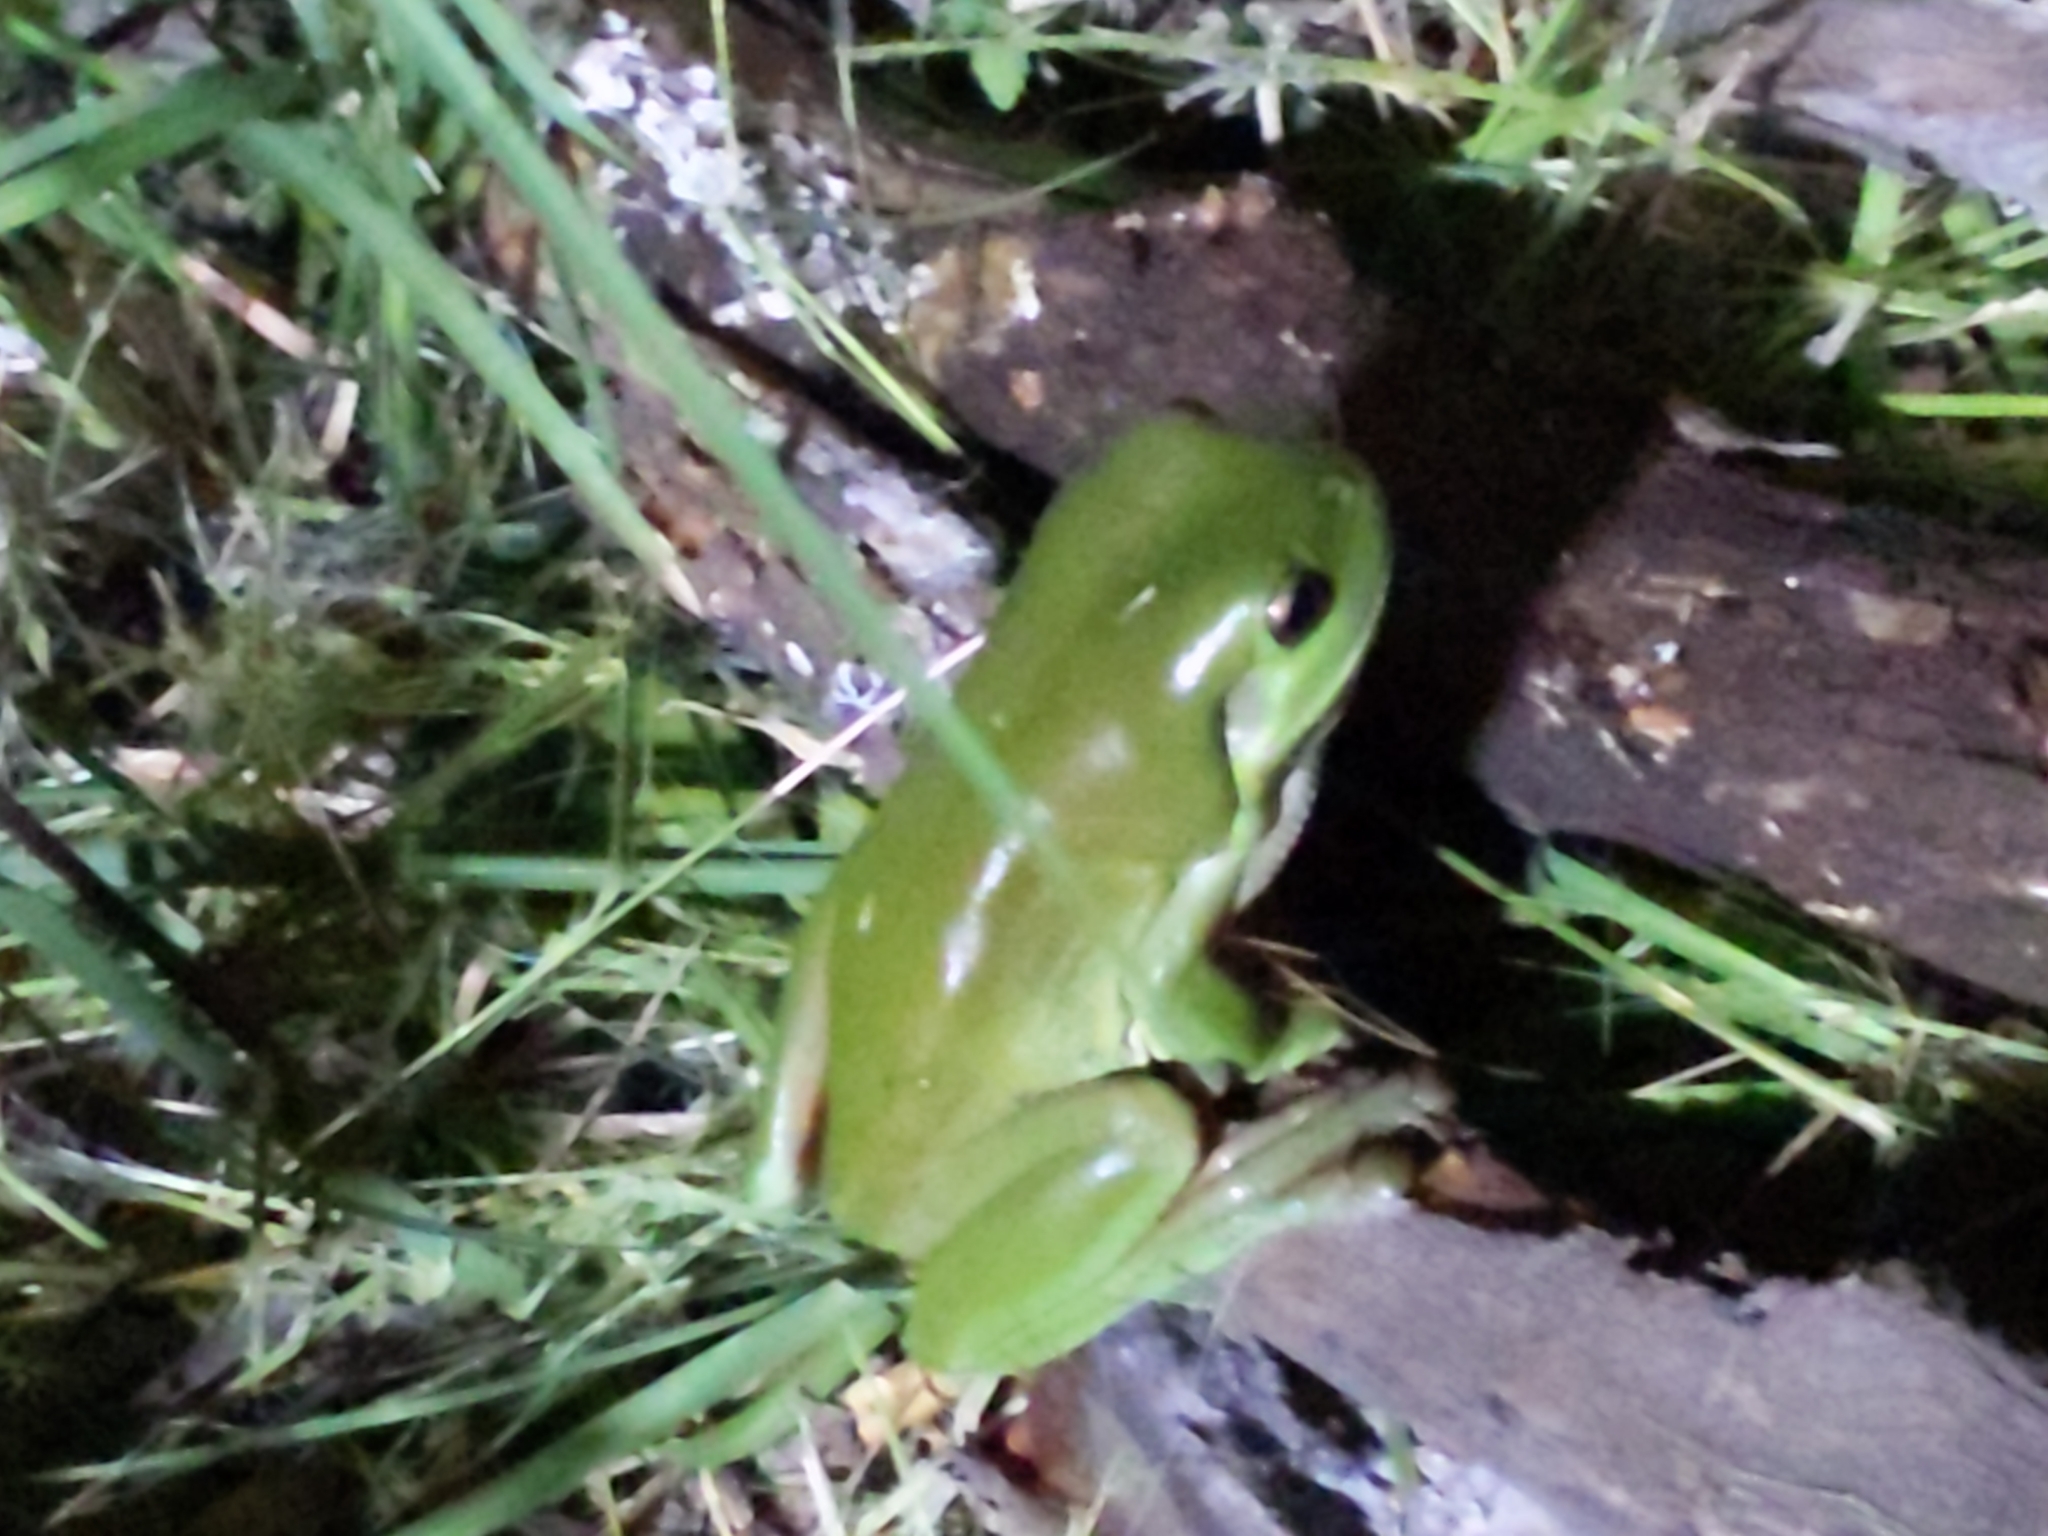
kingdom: Animalia
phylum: Chordata
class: Amphibia
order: Anura
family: Pelodryadidae
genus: Ranoidea
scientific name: Ranoidea caerulea
